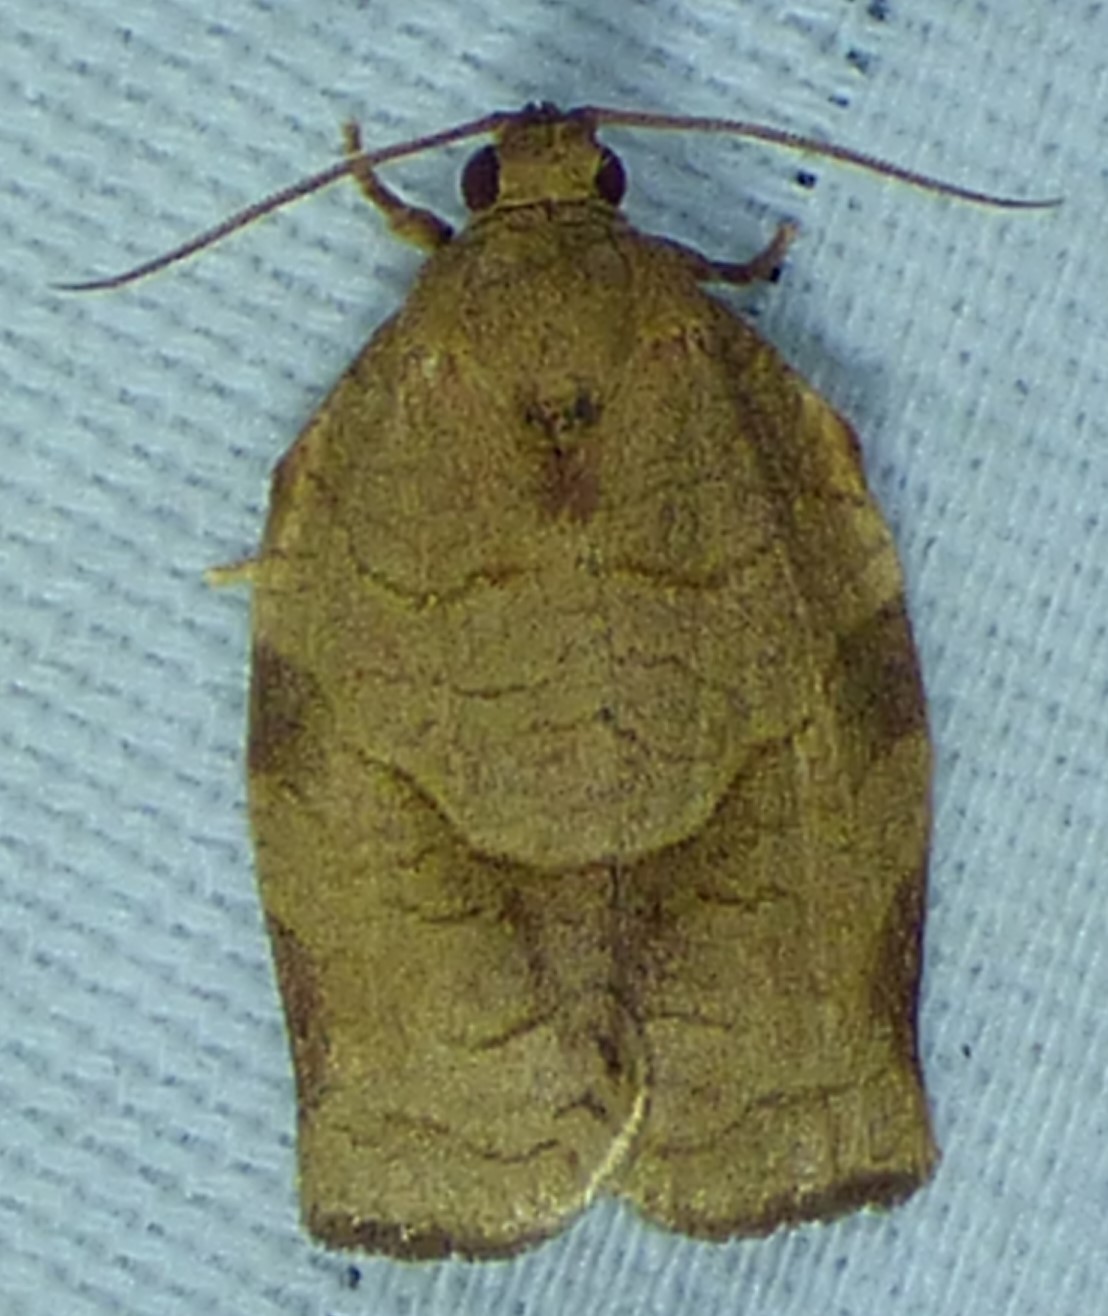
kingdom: Animalia
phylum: Arthropoda
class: Insecta
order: Lepidoptera
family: Tortricidae
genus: Choristoneura
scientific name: Choristoneura rosaceana
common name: Oblique-banded leafroller moth
